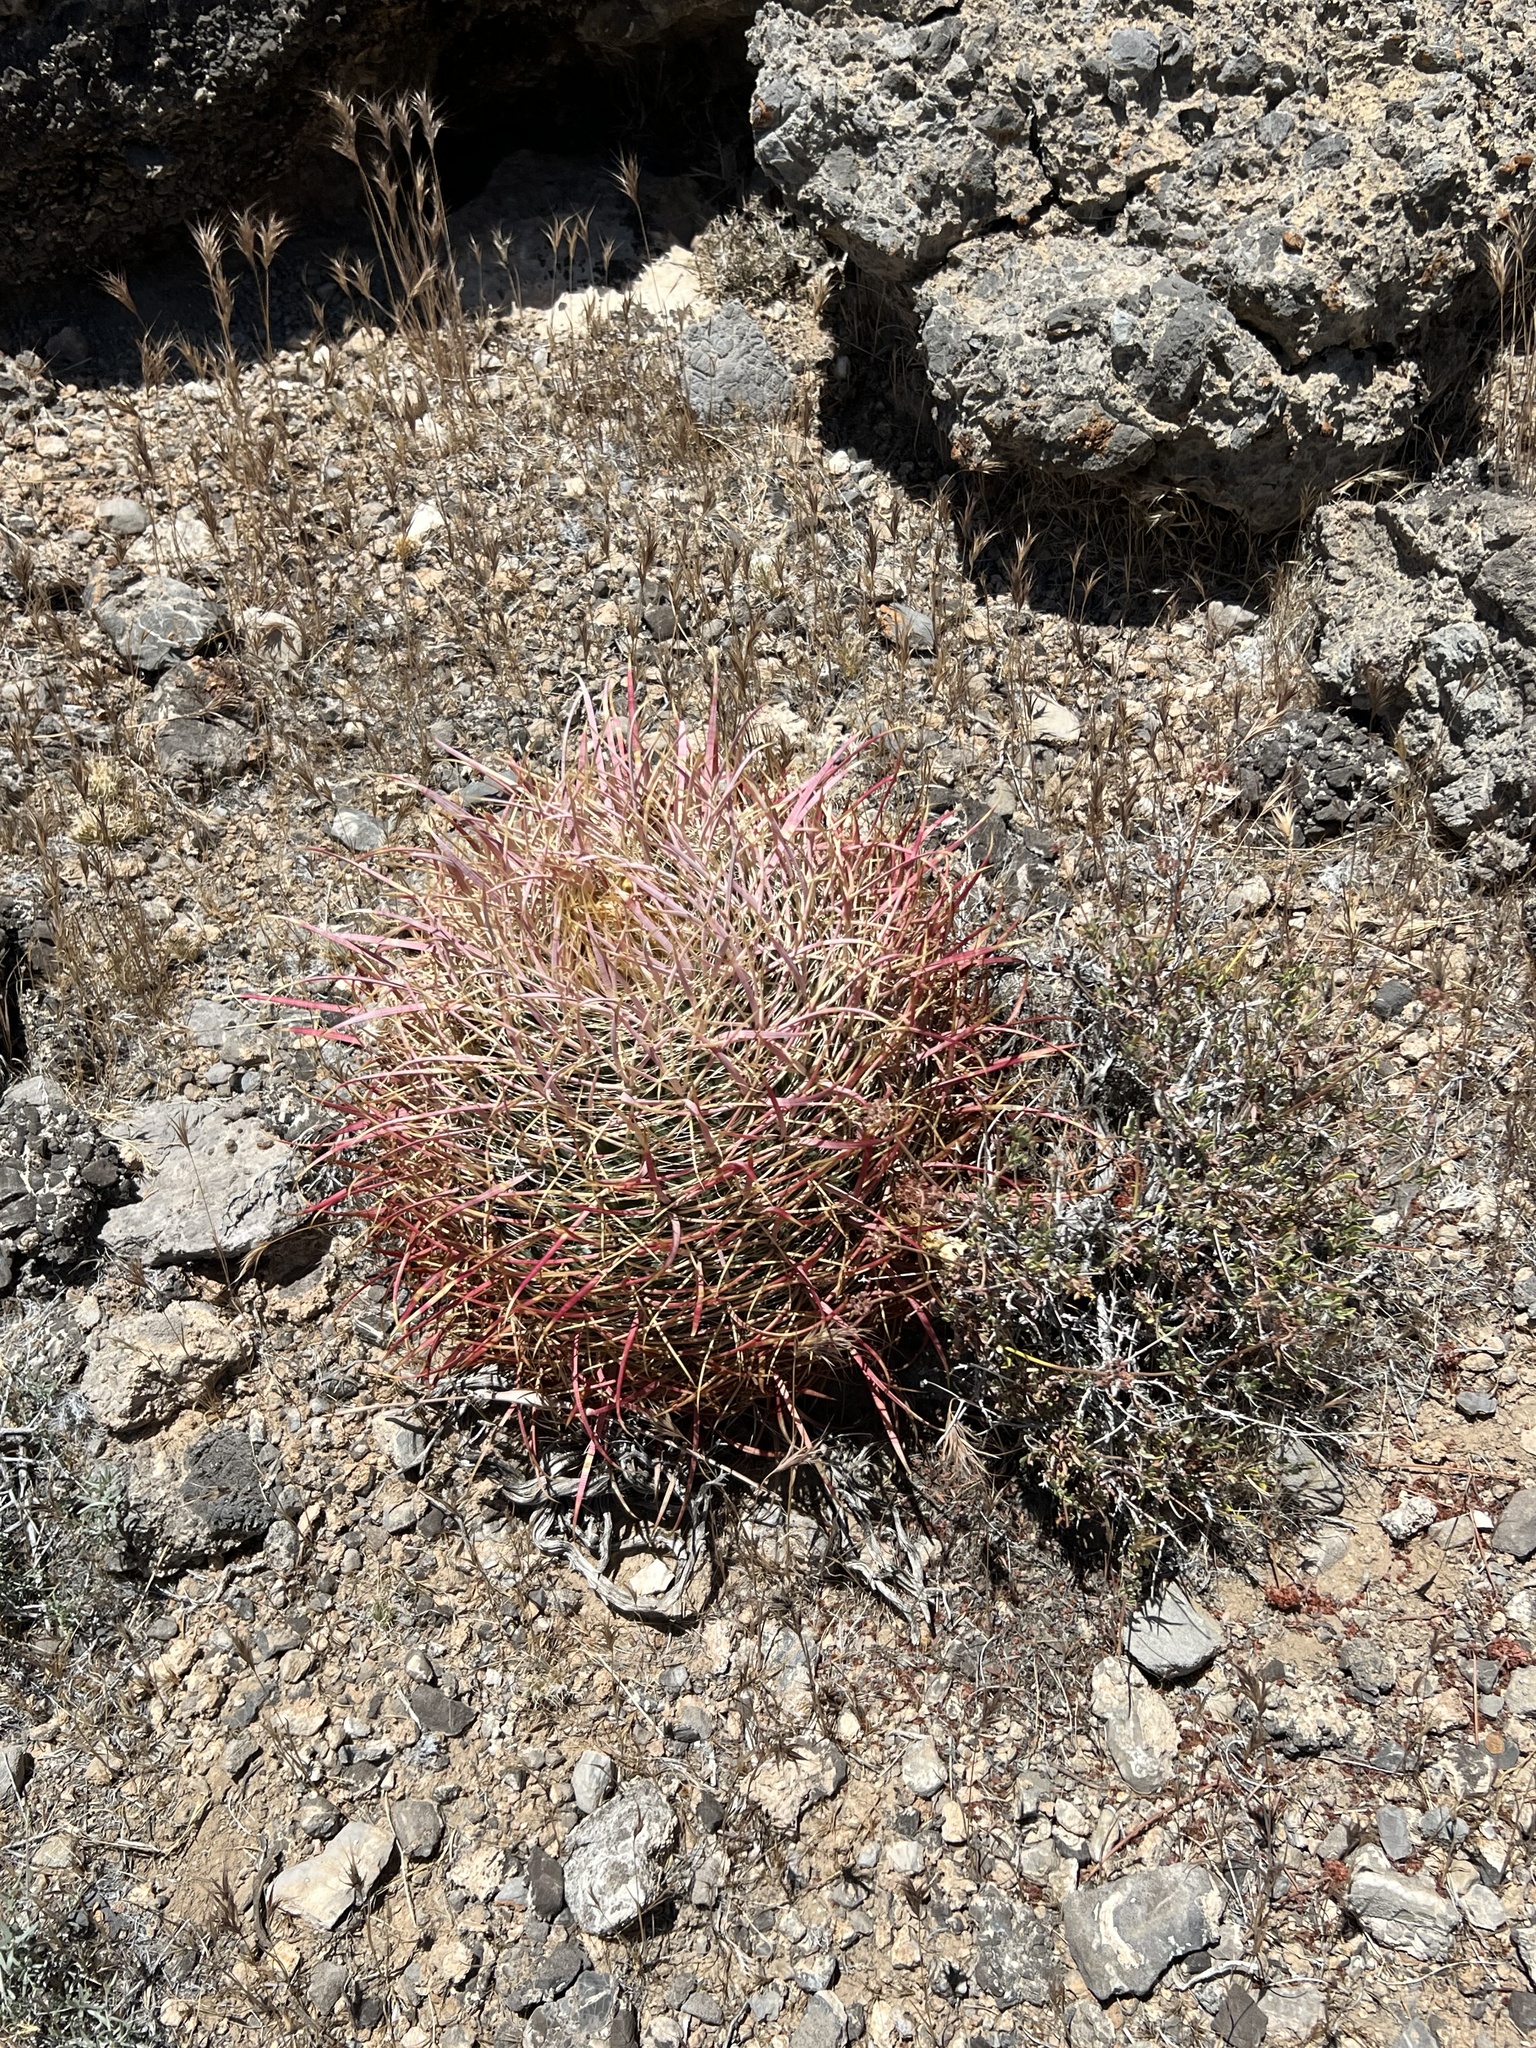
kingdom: Plantae
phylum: Tracheophyta
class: Magnoliopsida
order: Caryophyllales
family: Cactaceae
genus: Ferocactus
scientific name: Ferocactus cylindraceus
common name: California barrel cactus
